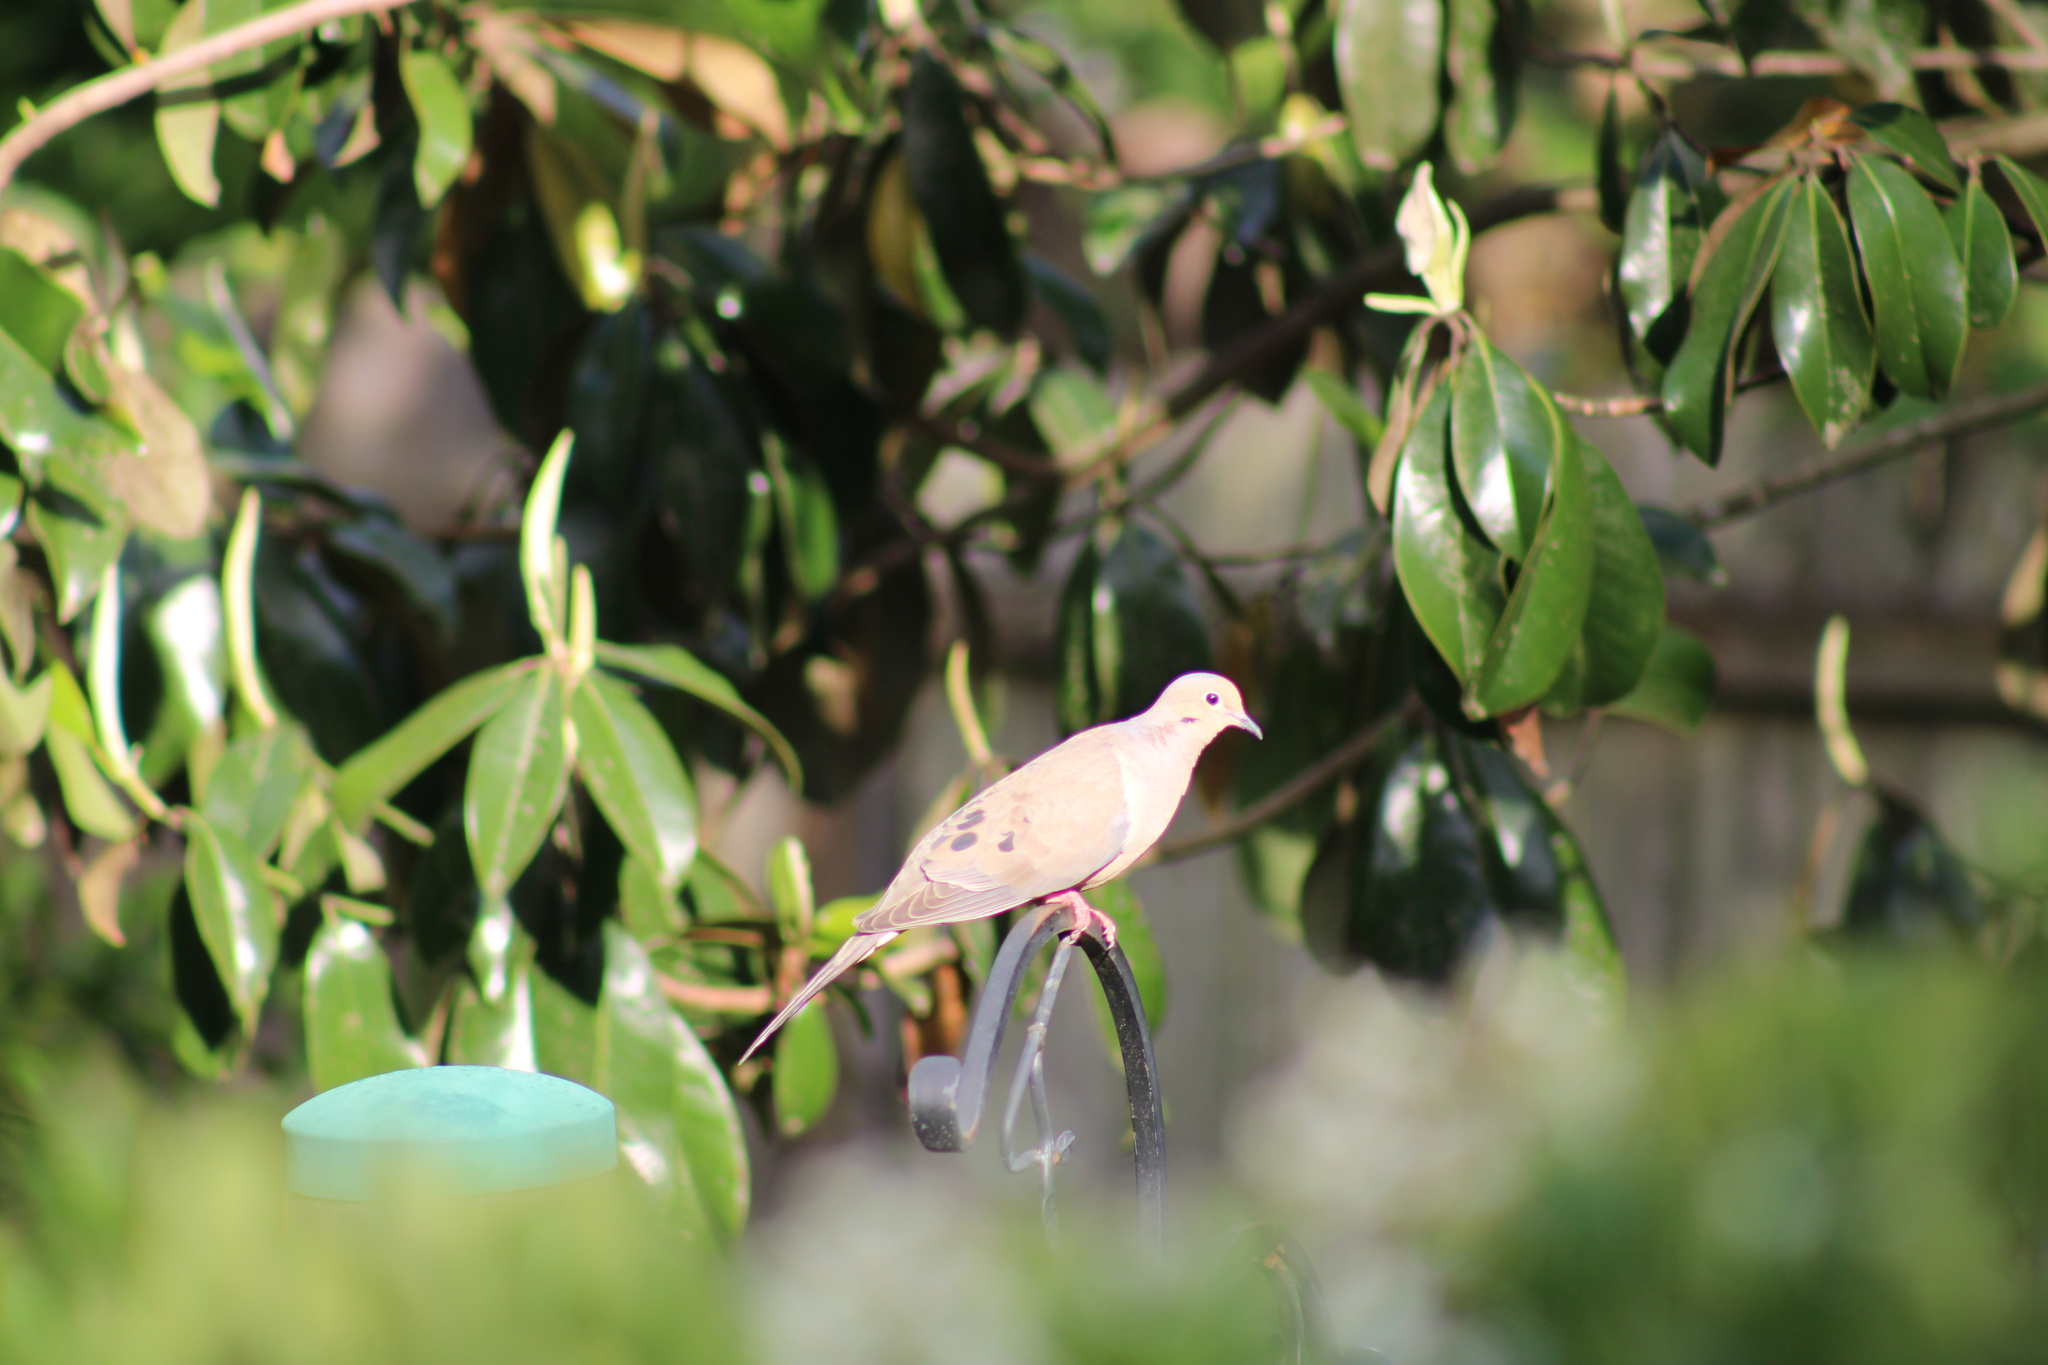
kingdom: Animalia
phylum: Chordata
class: Aves
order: Columbiformes
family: Columbidae
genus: Zenaida
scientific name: Zenaida macroura
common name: Mourning dove
